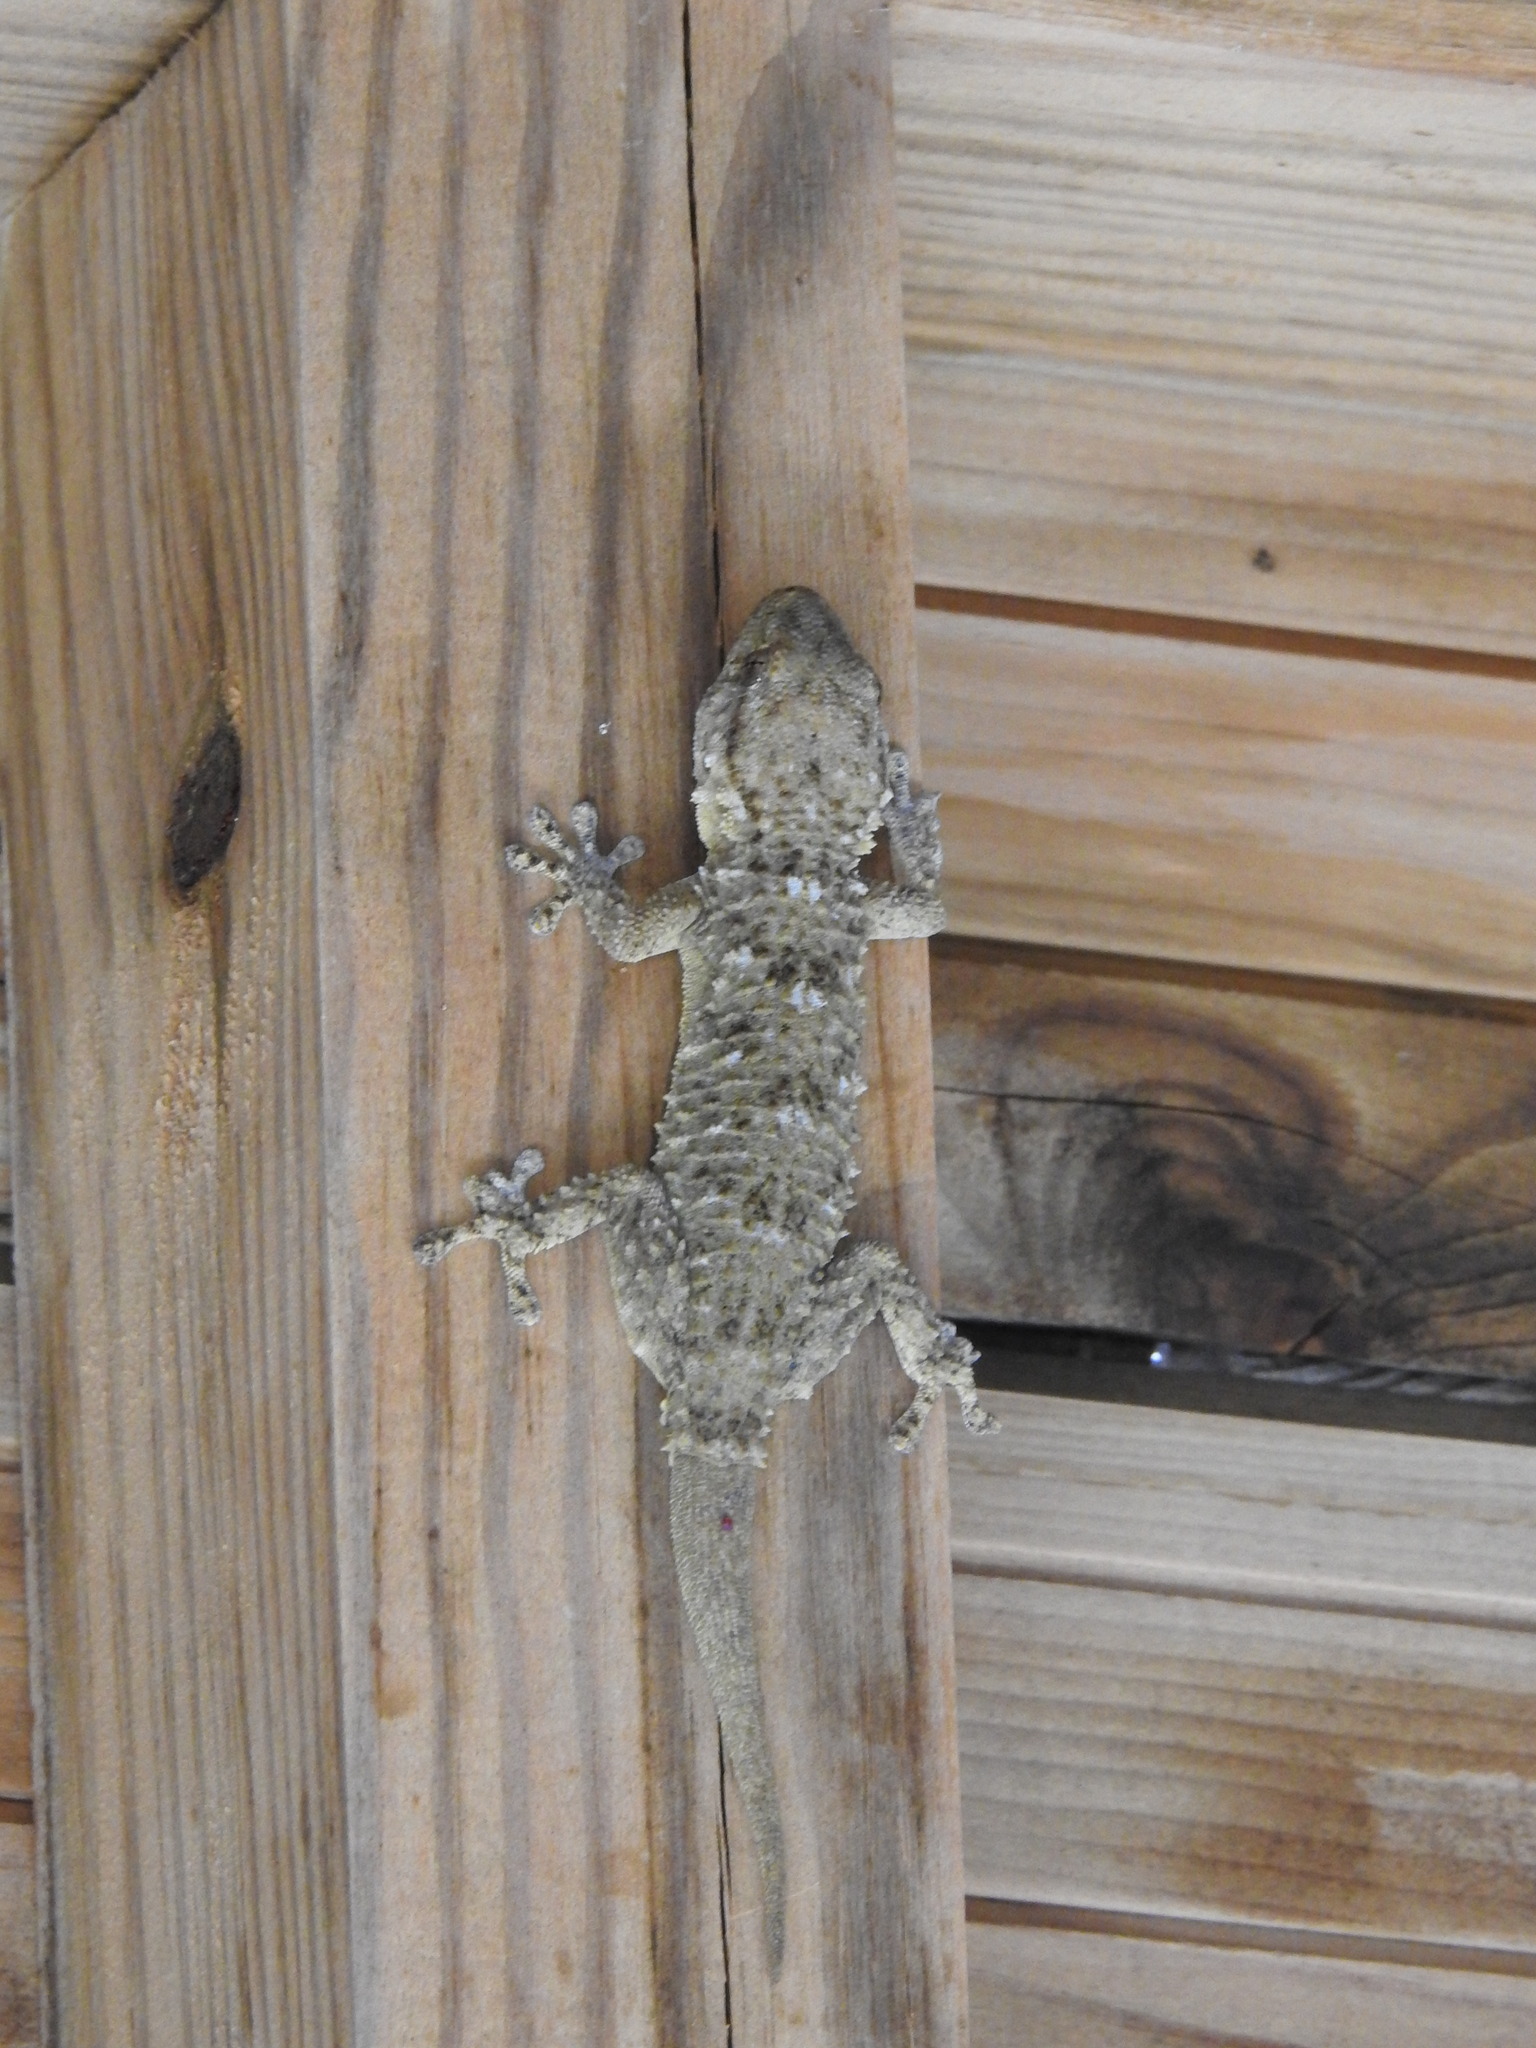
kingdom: Animalia
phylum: Chordata
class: Squamata
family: Phyllodactylidae
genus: Tarentola
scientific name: Tarentola mauritanica
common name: Moorish gecko
